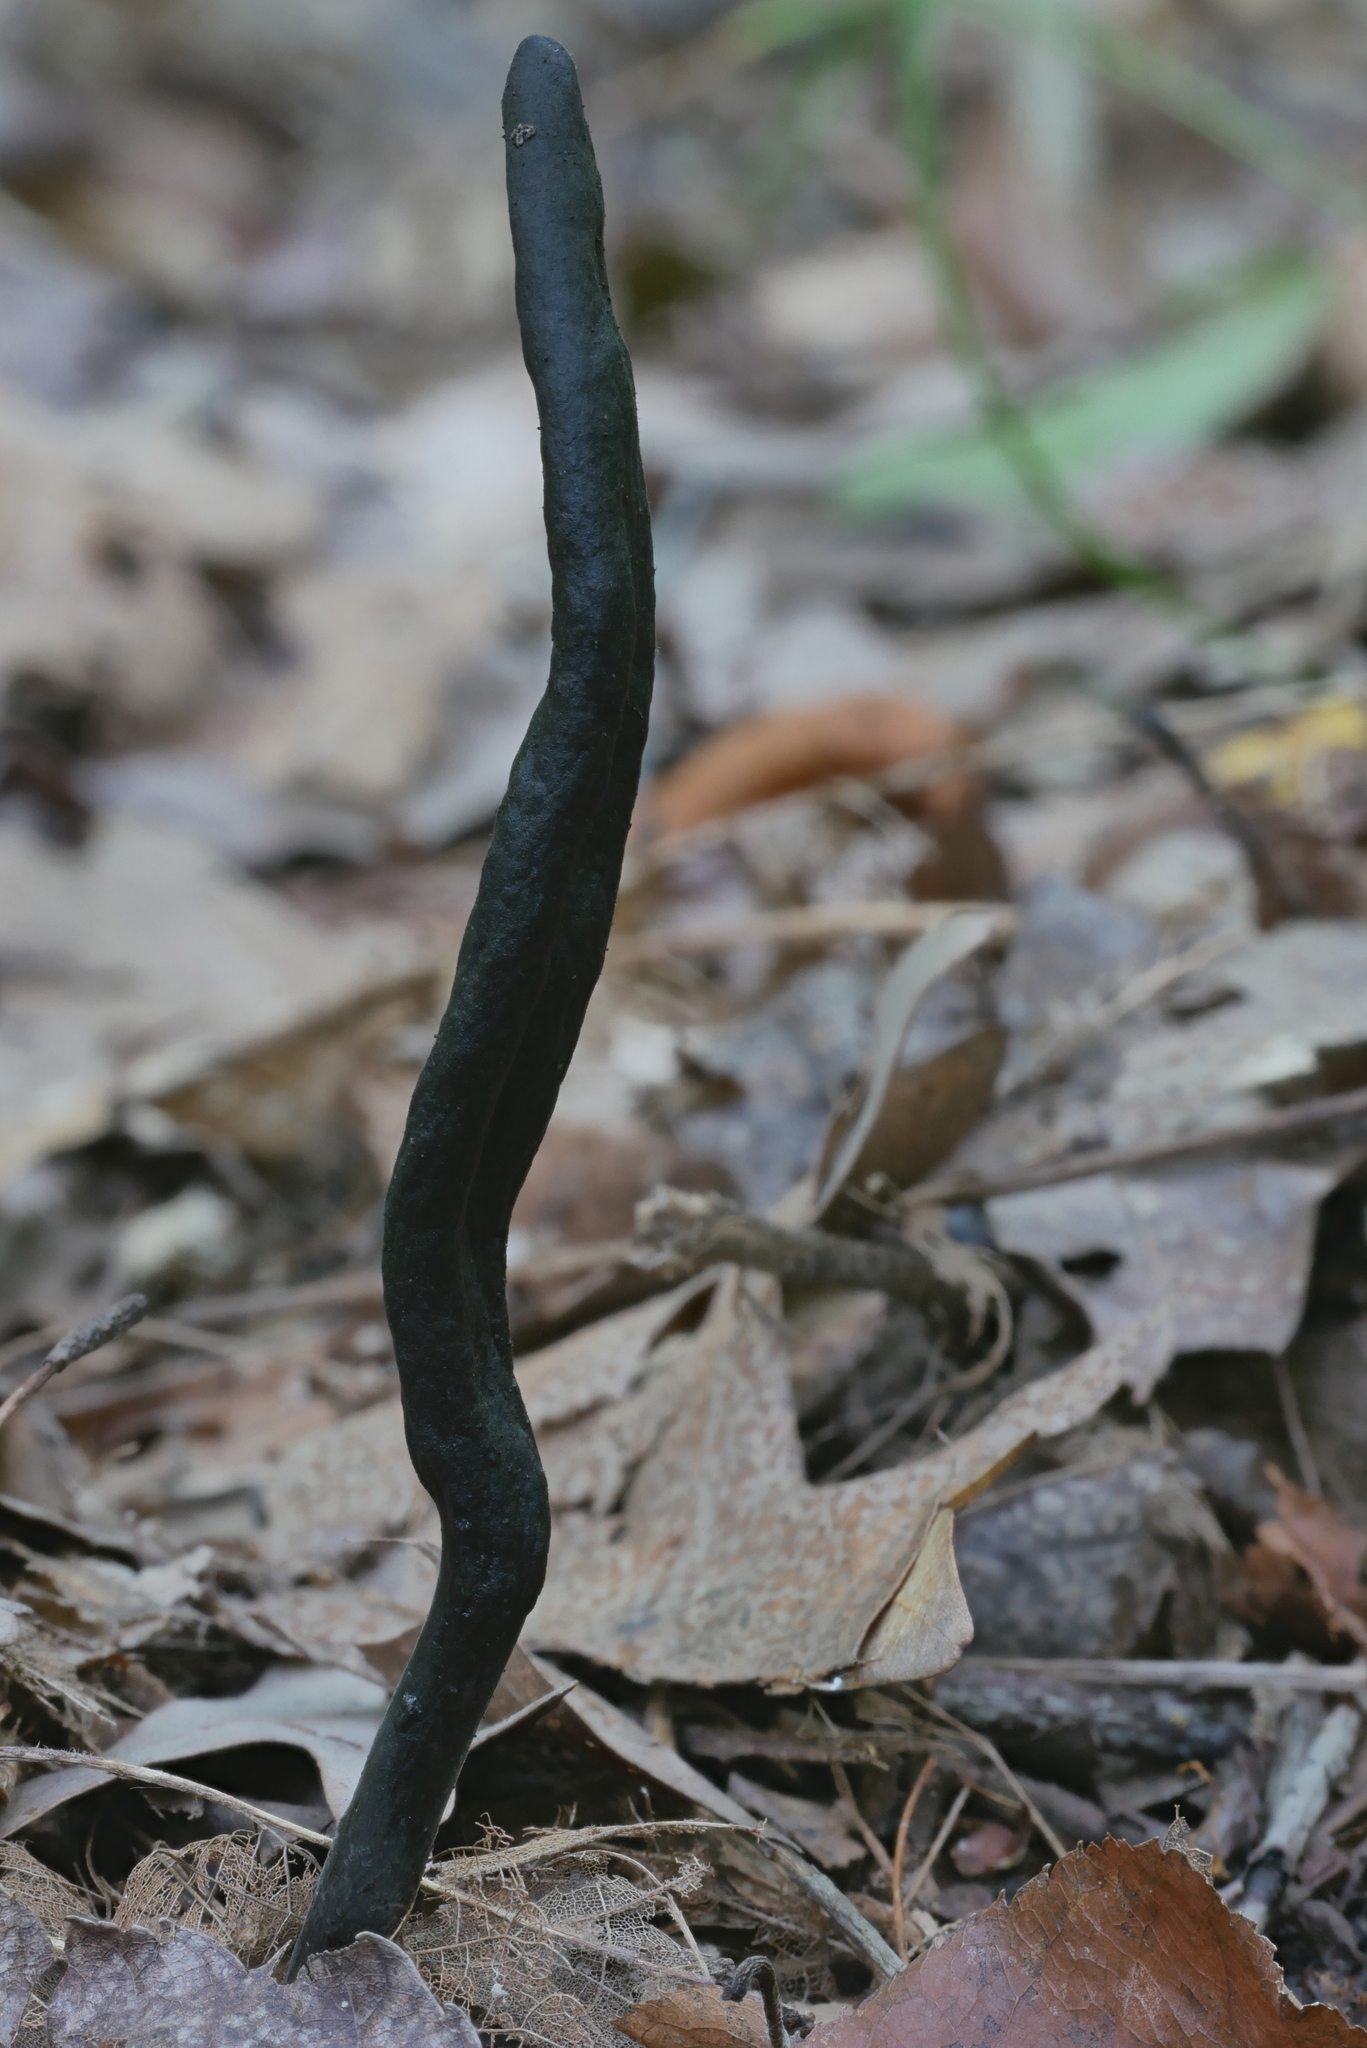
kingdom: Fungi
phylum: Ascomycota
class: Geoglossomycetes
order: Geoglossales
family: Geoglossaceae
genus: Geoglossum
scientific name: Geoglossum difforme
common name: Slimy earthtongue
